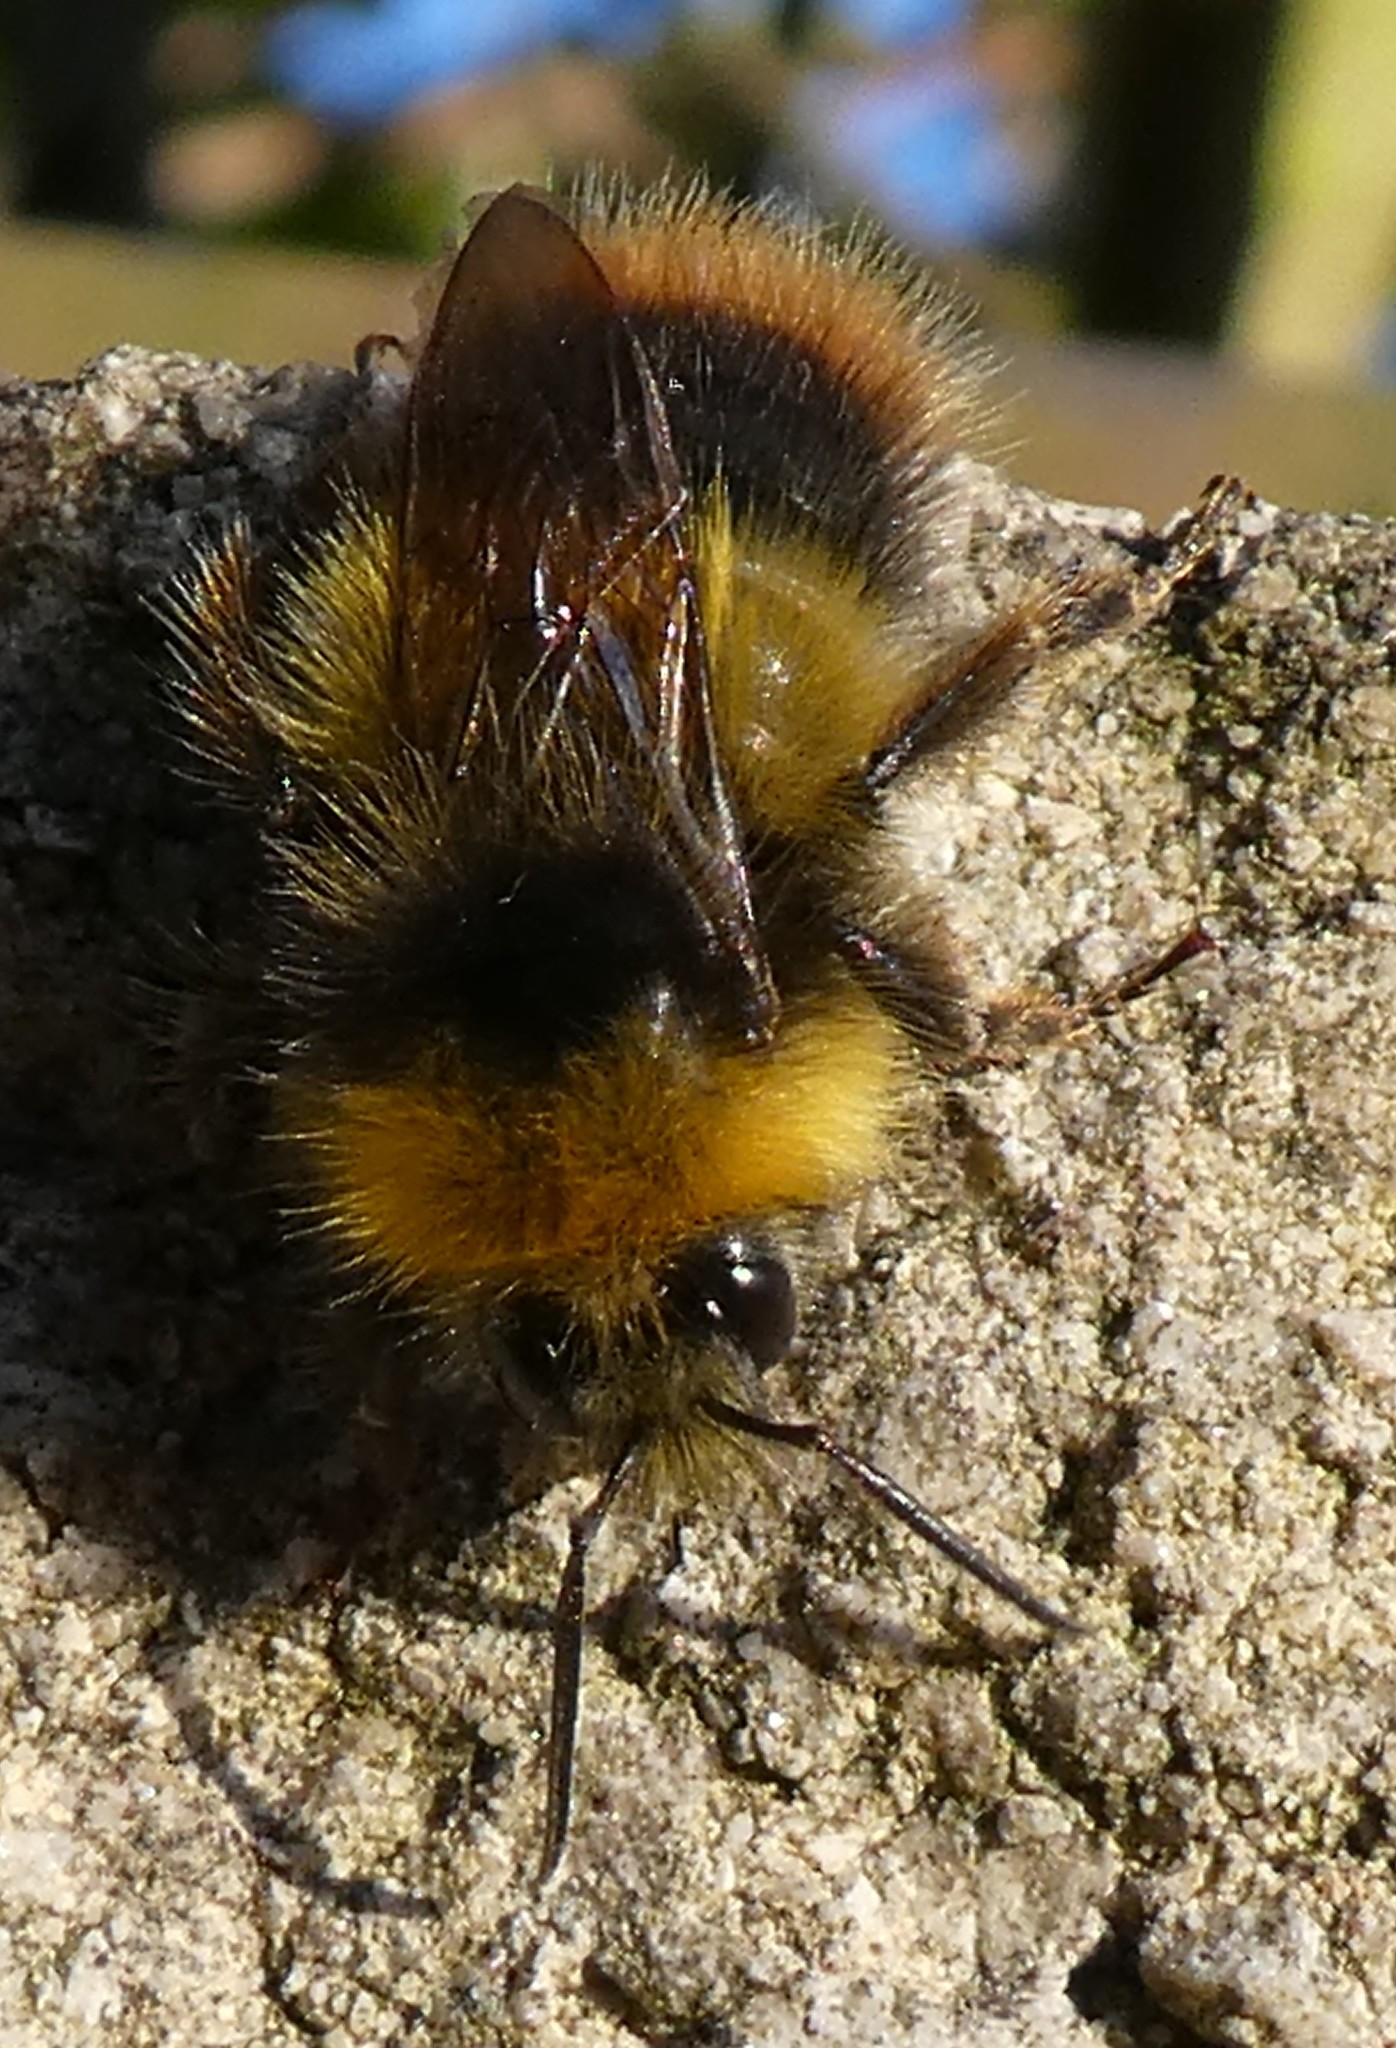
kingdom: Animalia
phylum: Arthropoda
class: Insecta
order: Hymenoptera
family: Apidae
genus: Bombus
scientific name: Bombus pratorum
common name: Early humble-bee
